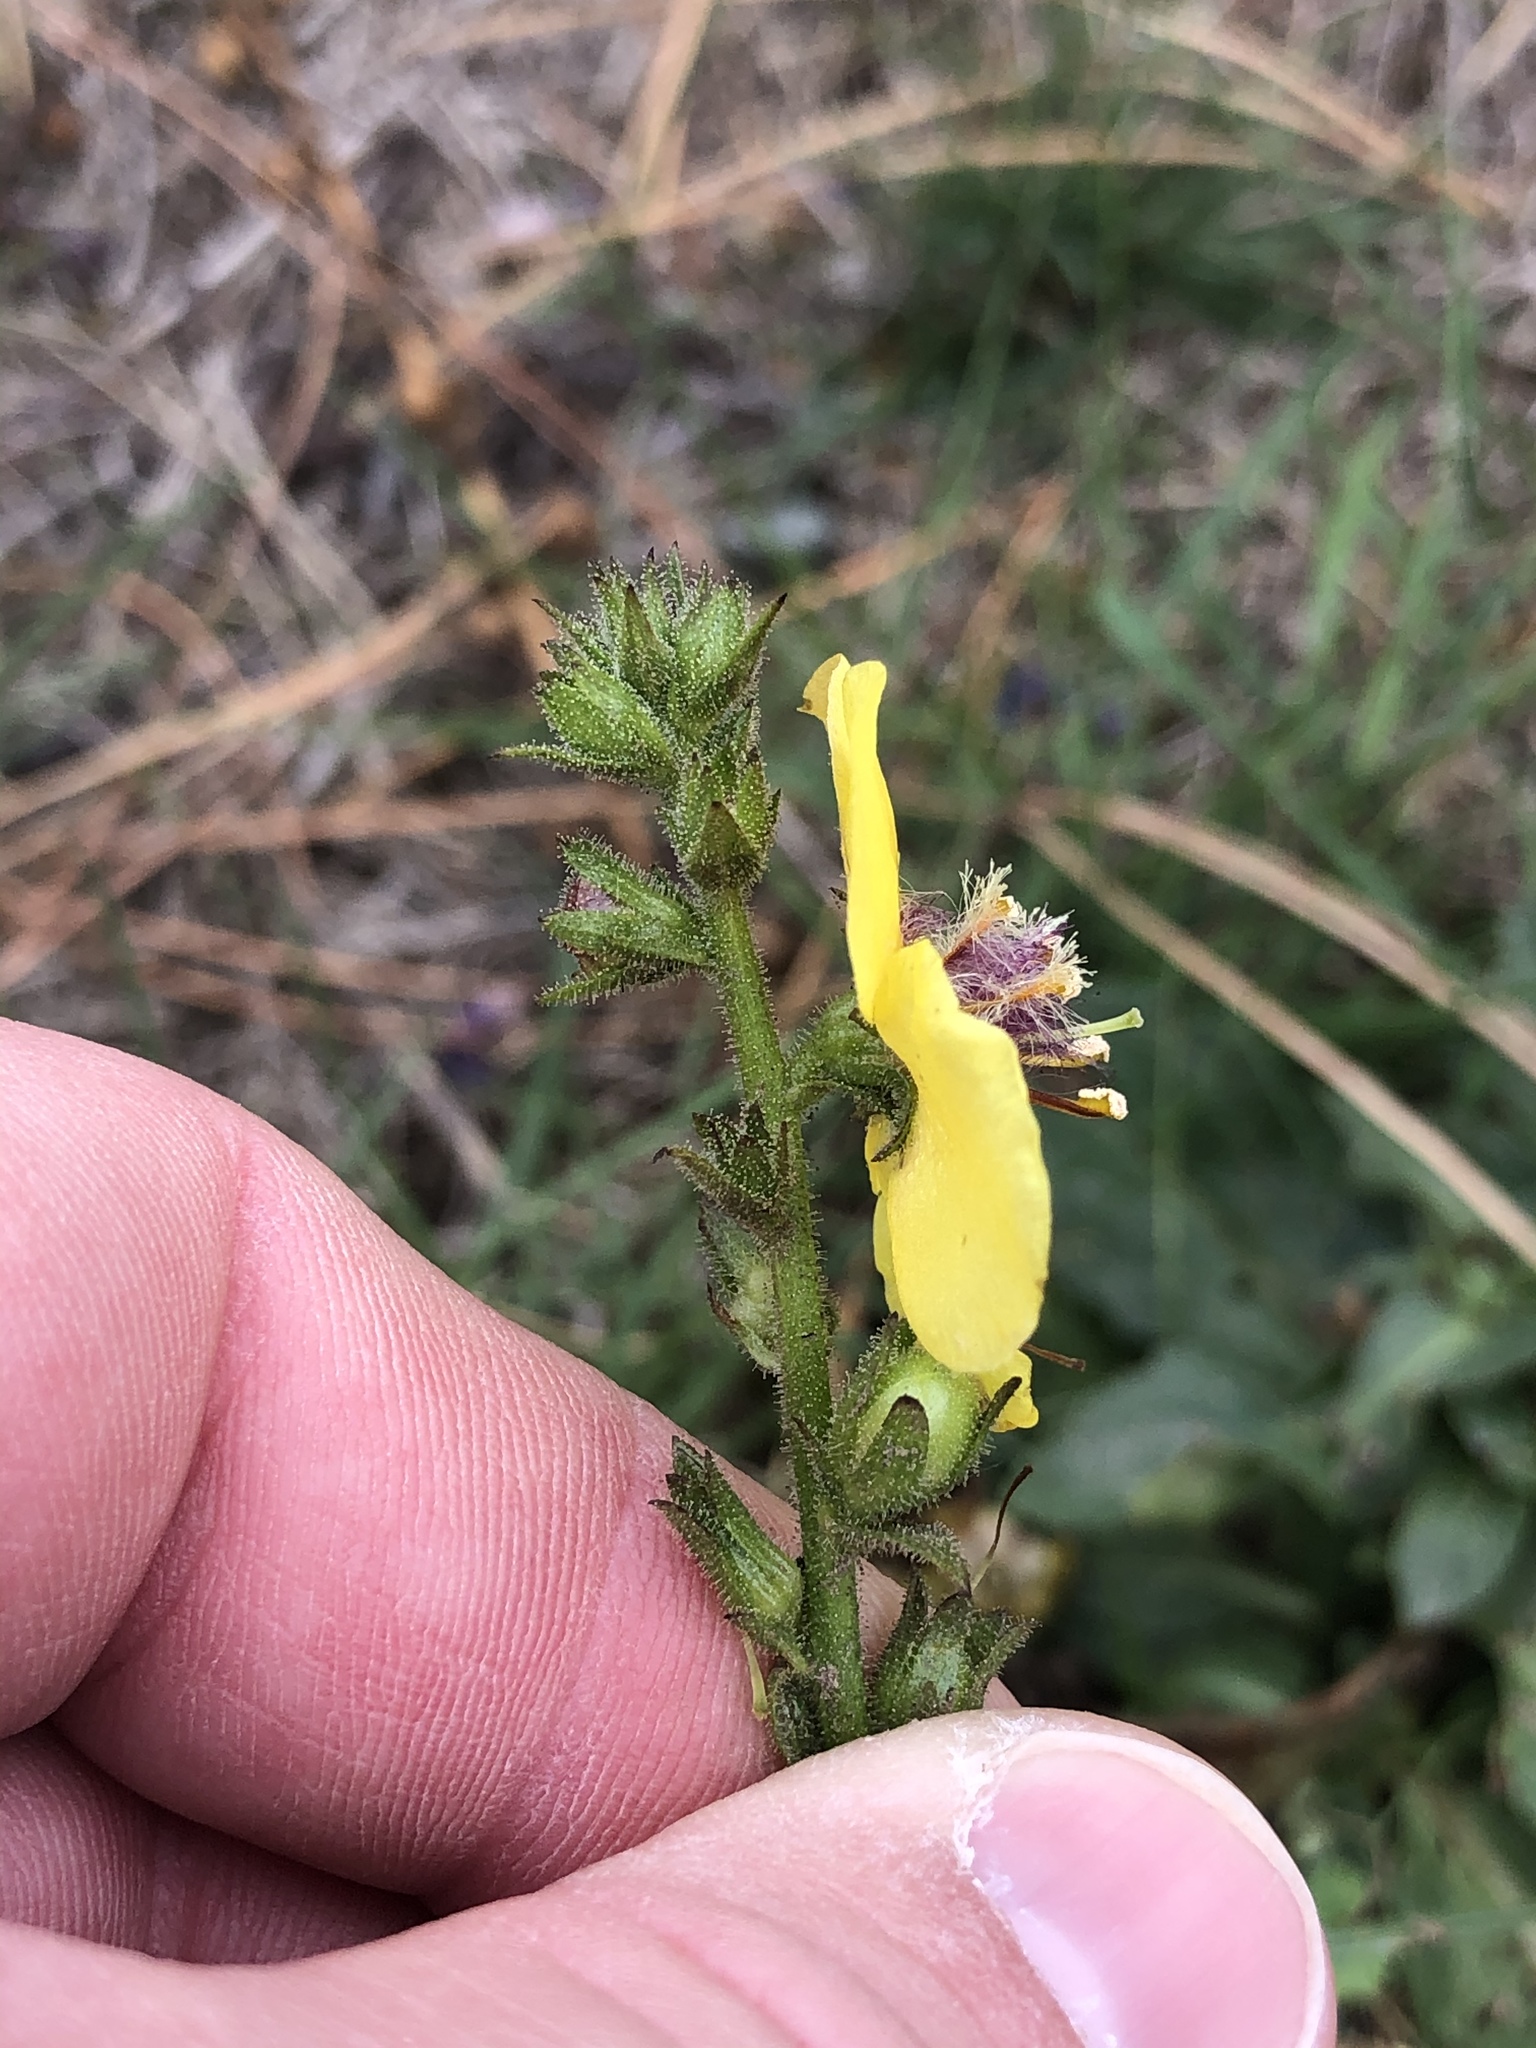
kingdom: Plantae
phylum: Tracheophyta
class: Magnoliopsida
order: Lamiales
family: Scrophulariaceae
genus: Verbascum
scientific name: Verbascum virgatum
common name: Twiggy mullein
